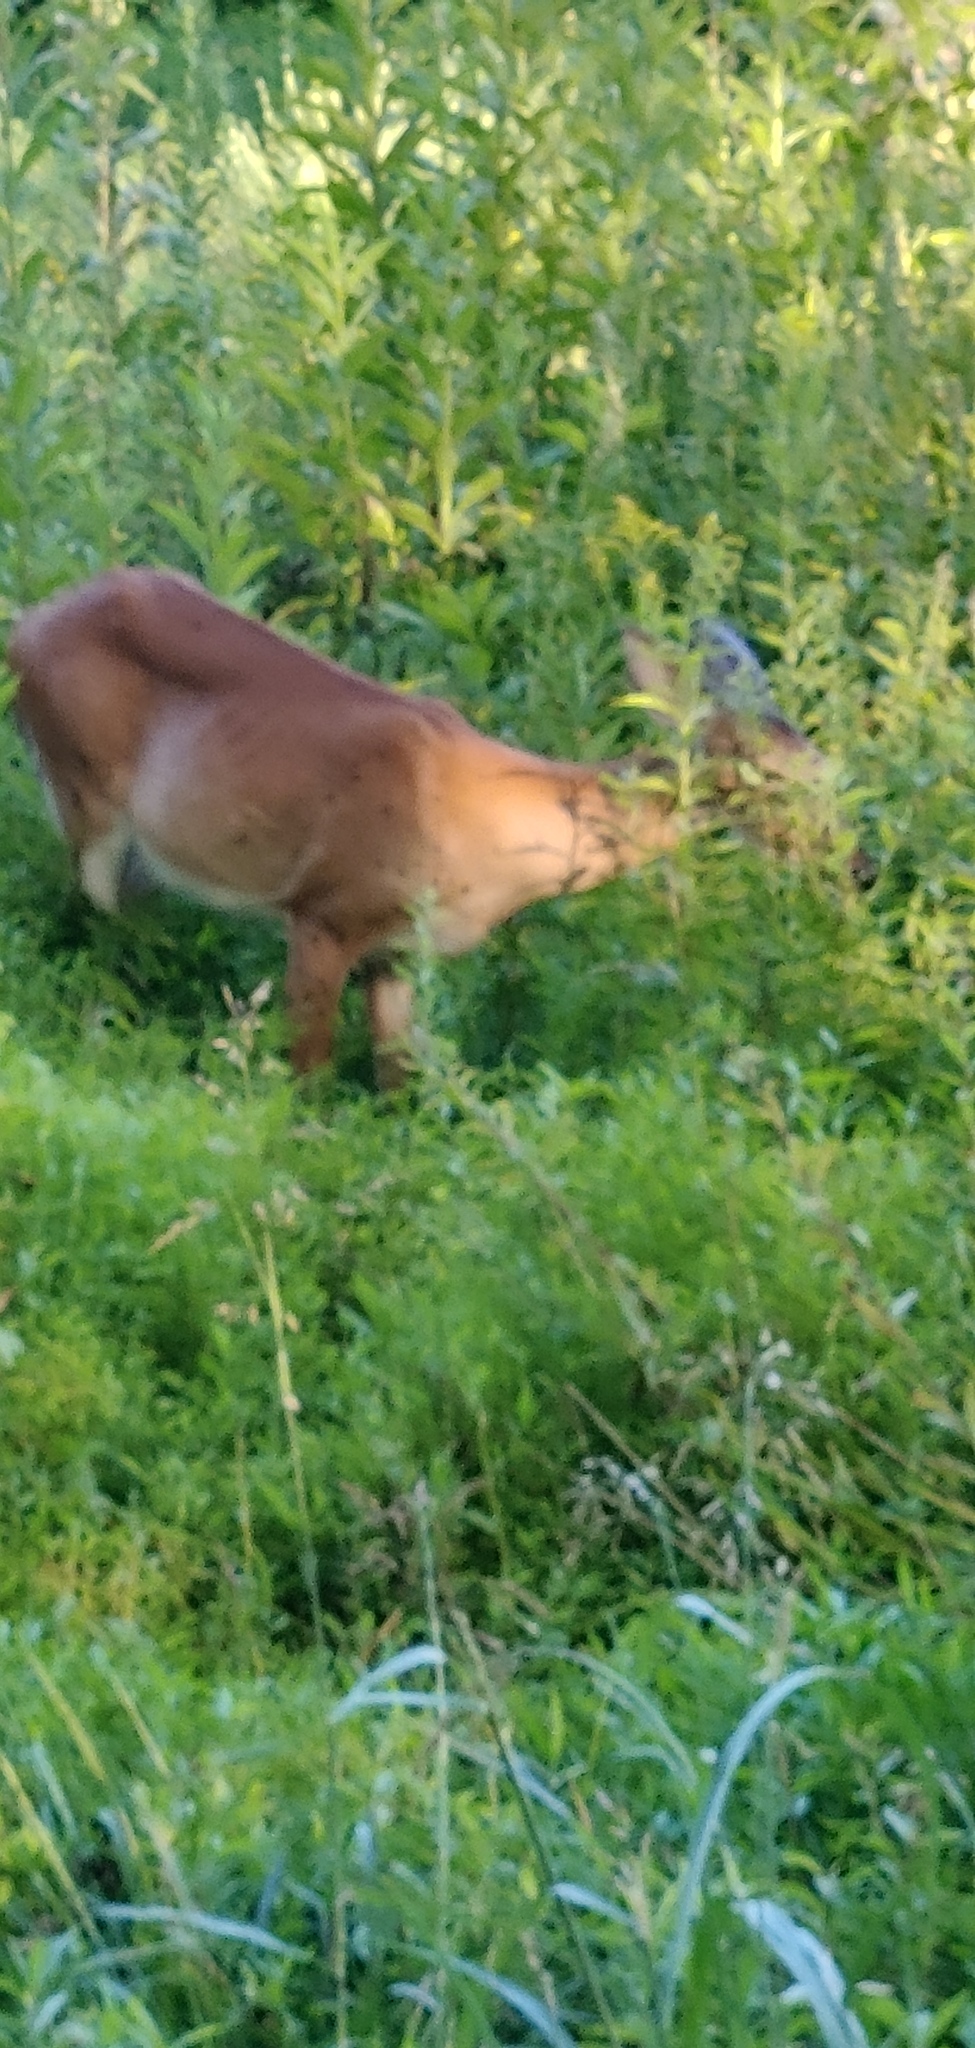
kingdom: Animalia
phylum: Chordata
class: Mammalia
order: Artiodactyla
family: Cervidae
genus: Odocoileus
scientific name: Odocoileus virginianus
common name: White-tailed deer
